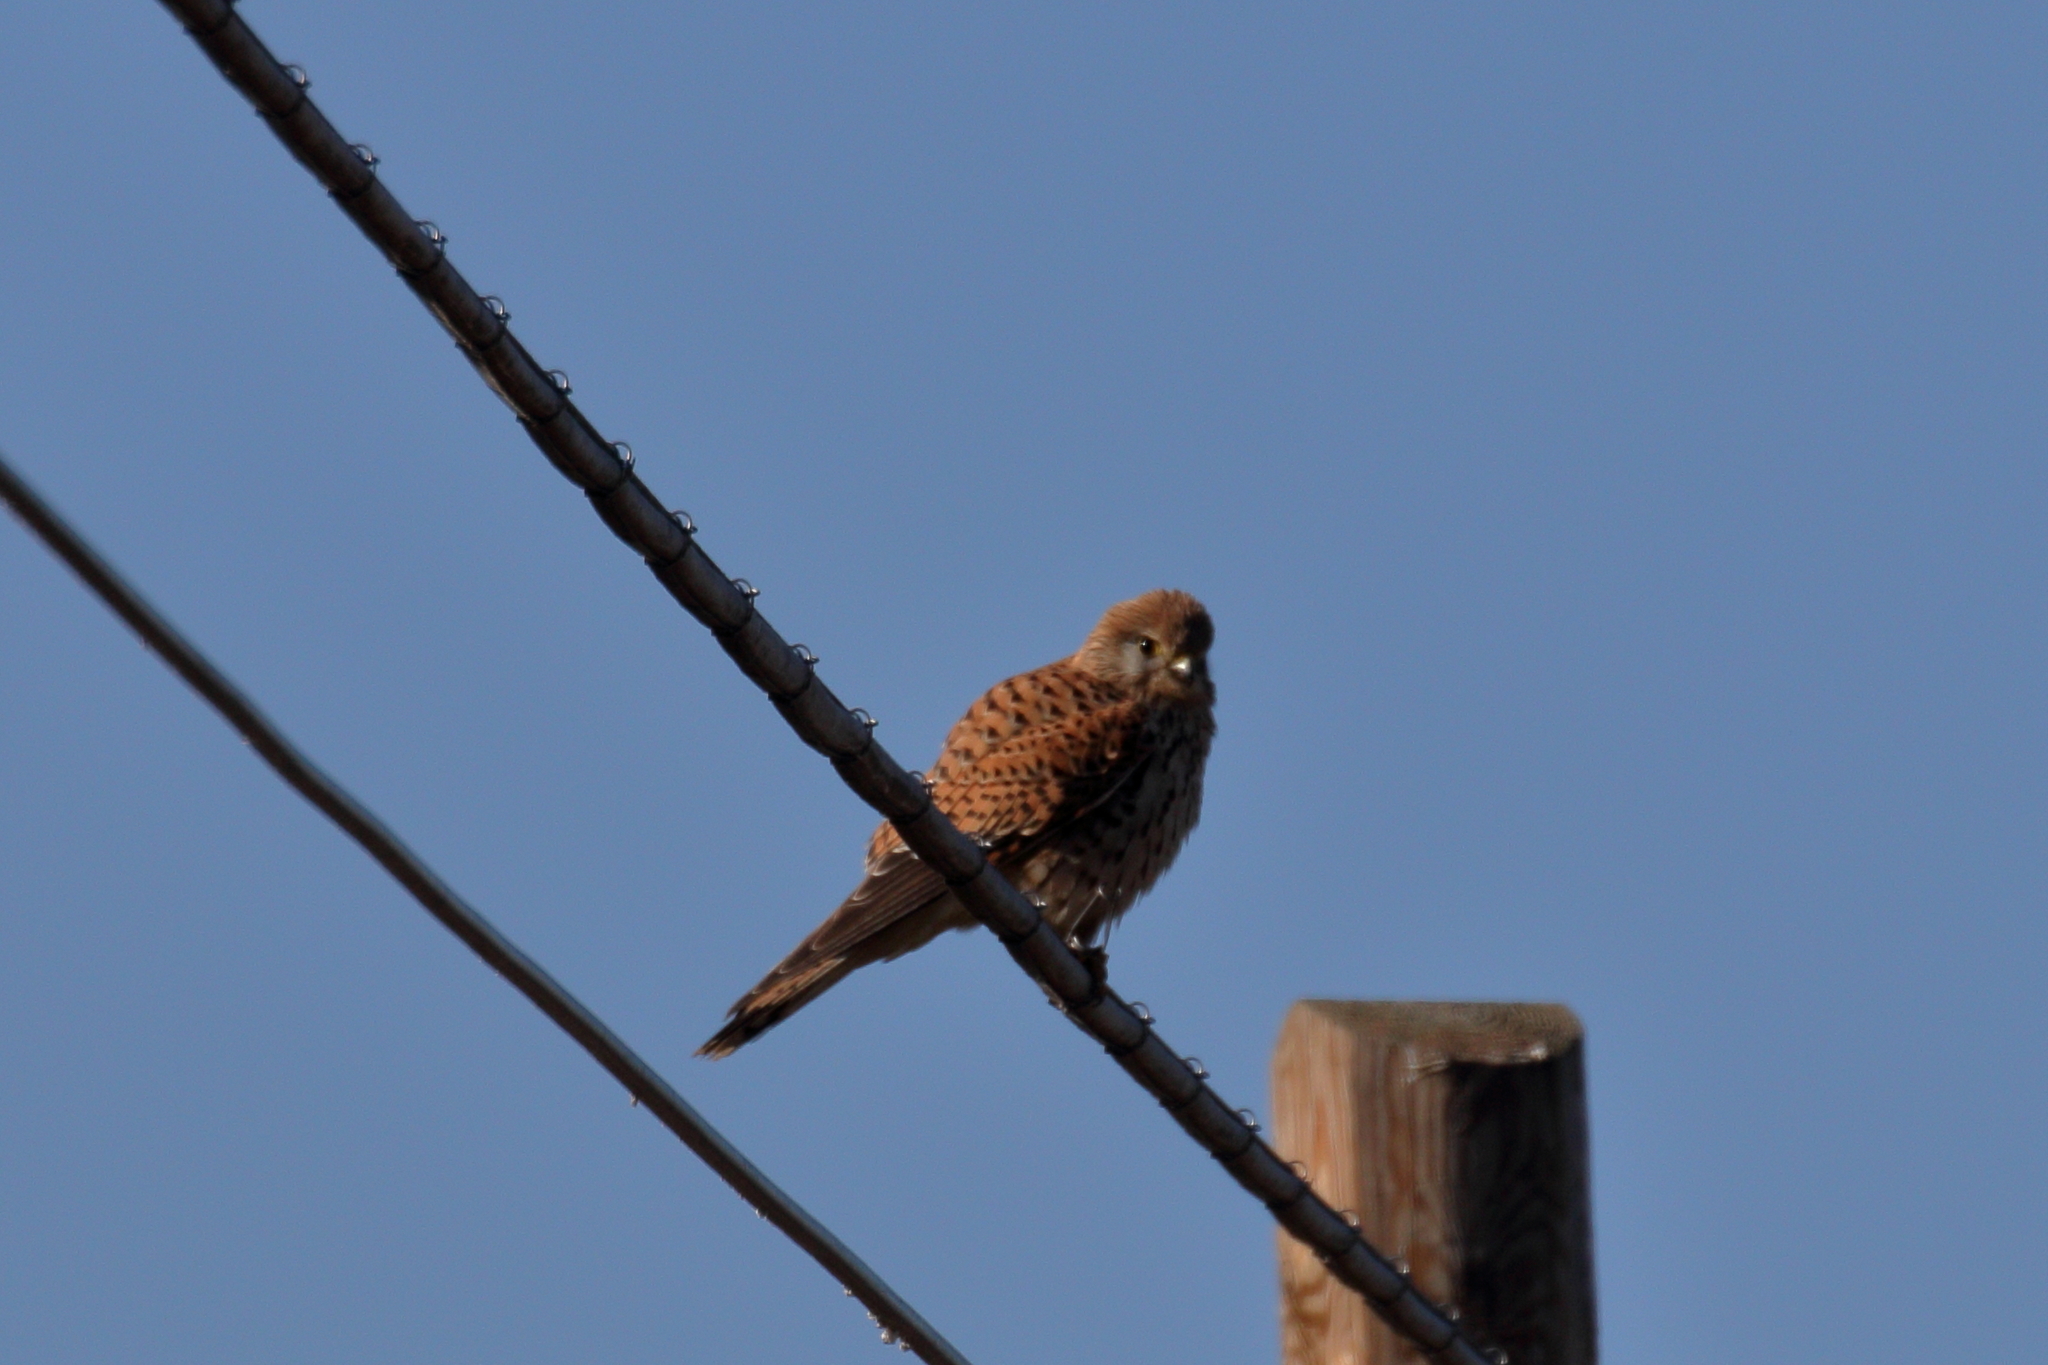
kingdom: Animalia
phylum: Chordata
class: Aves
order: Falconiformes
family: Falconidae
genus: Falco
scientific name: Falco tinnunculus
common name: Common kestrel
